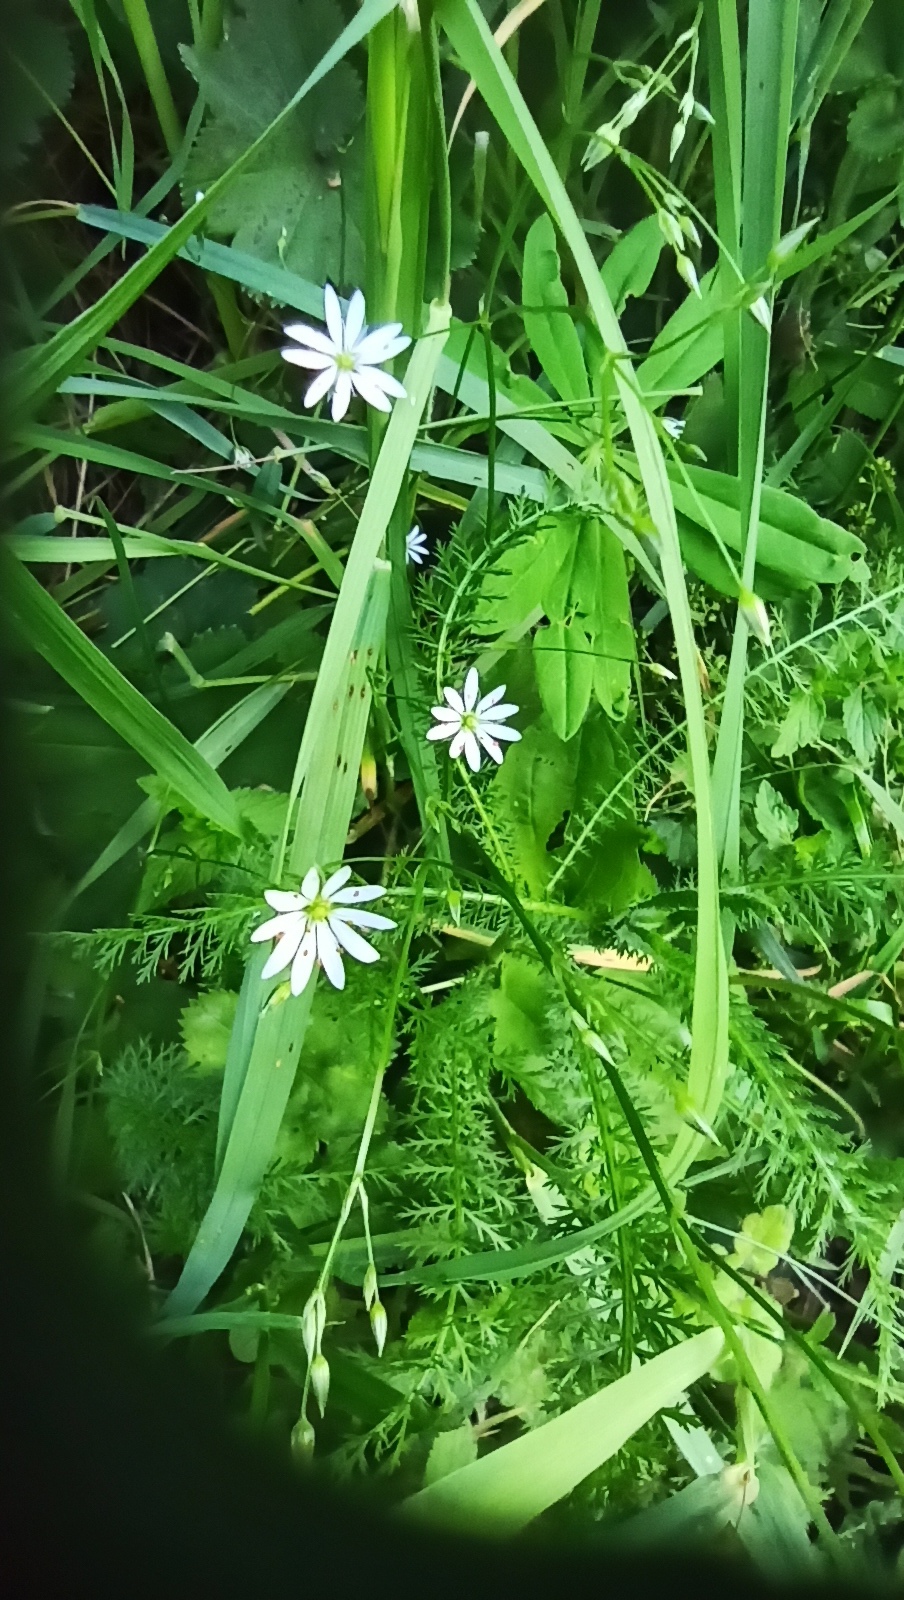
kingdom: Plantae
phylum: Tracheophyta
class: Magnoliopsida
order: Caryophyllales
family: Caryophyllaceae
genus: Stellaria
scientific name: Stellaria graminea
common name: Grass-like starwort
